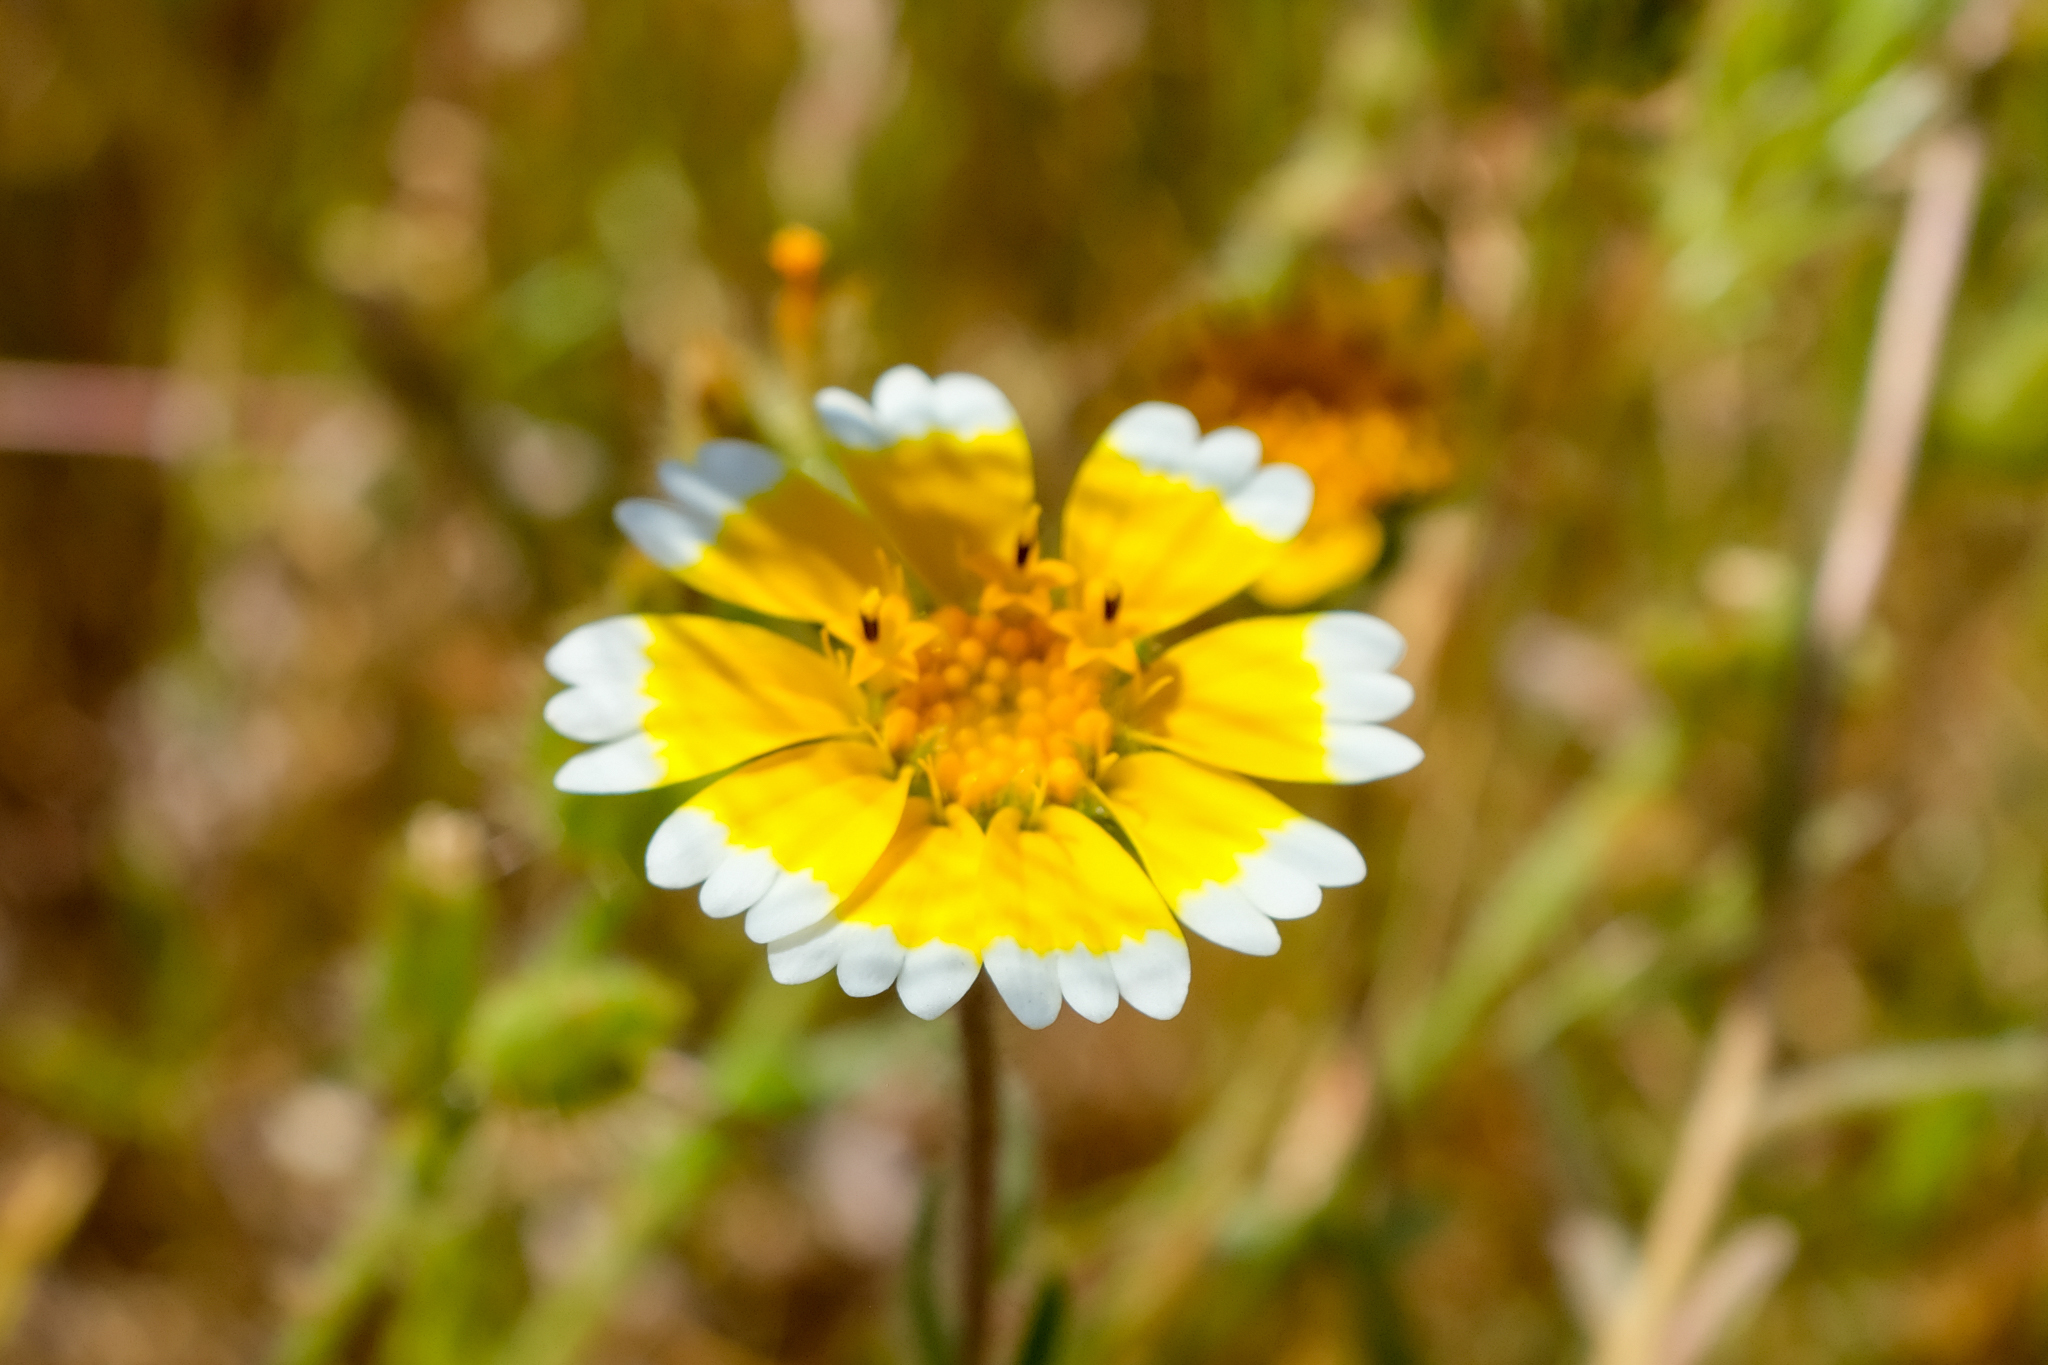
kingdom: Plantae
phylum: Tracheophyta
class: Magnoliopsida
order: Asterales
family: Asteraceae
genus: Layia
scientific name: Layia platyglossa
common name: Tidy-tips
